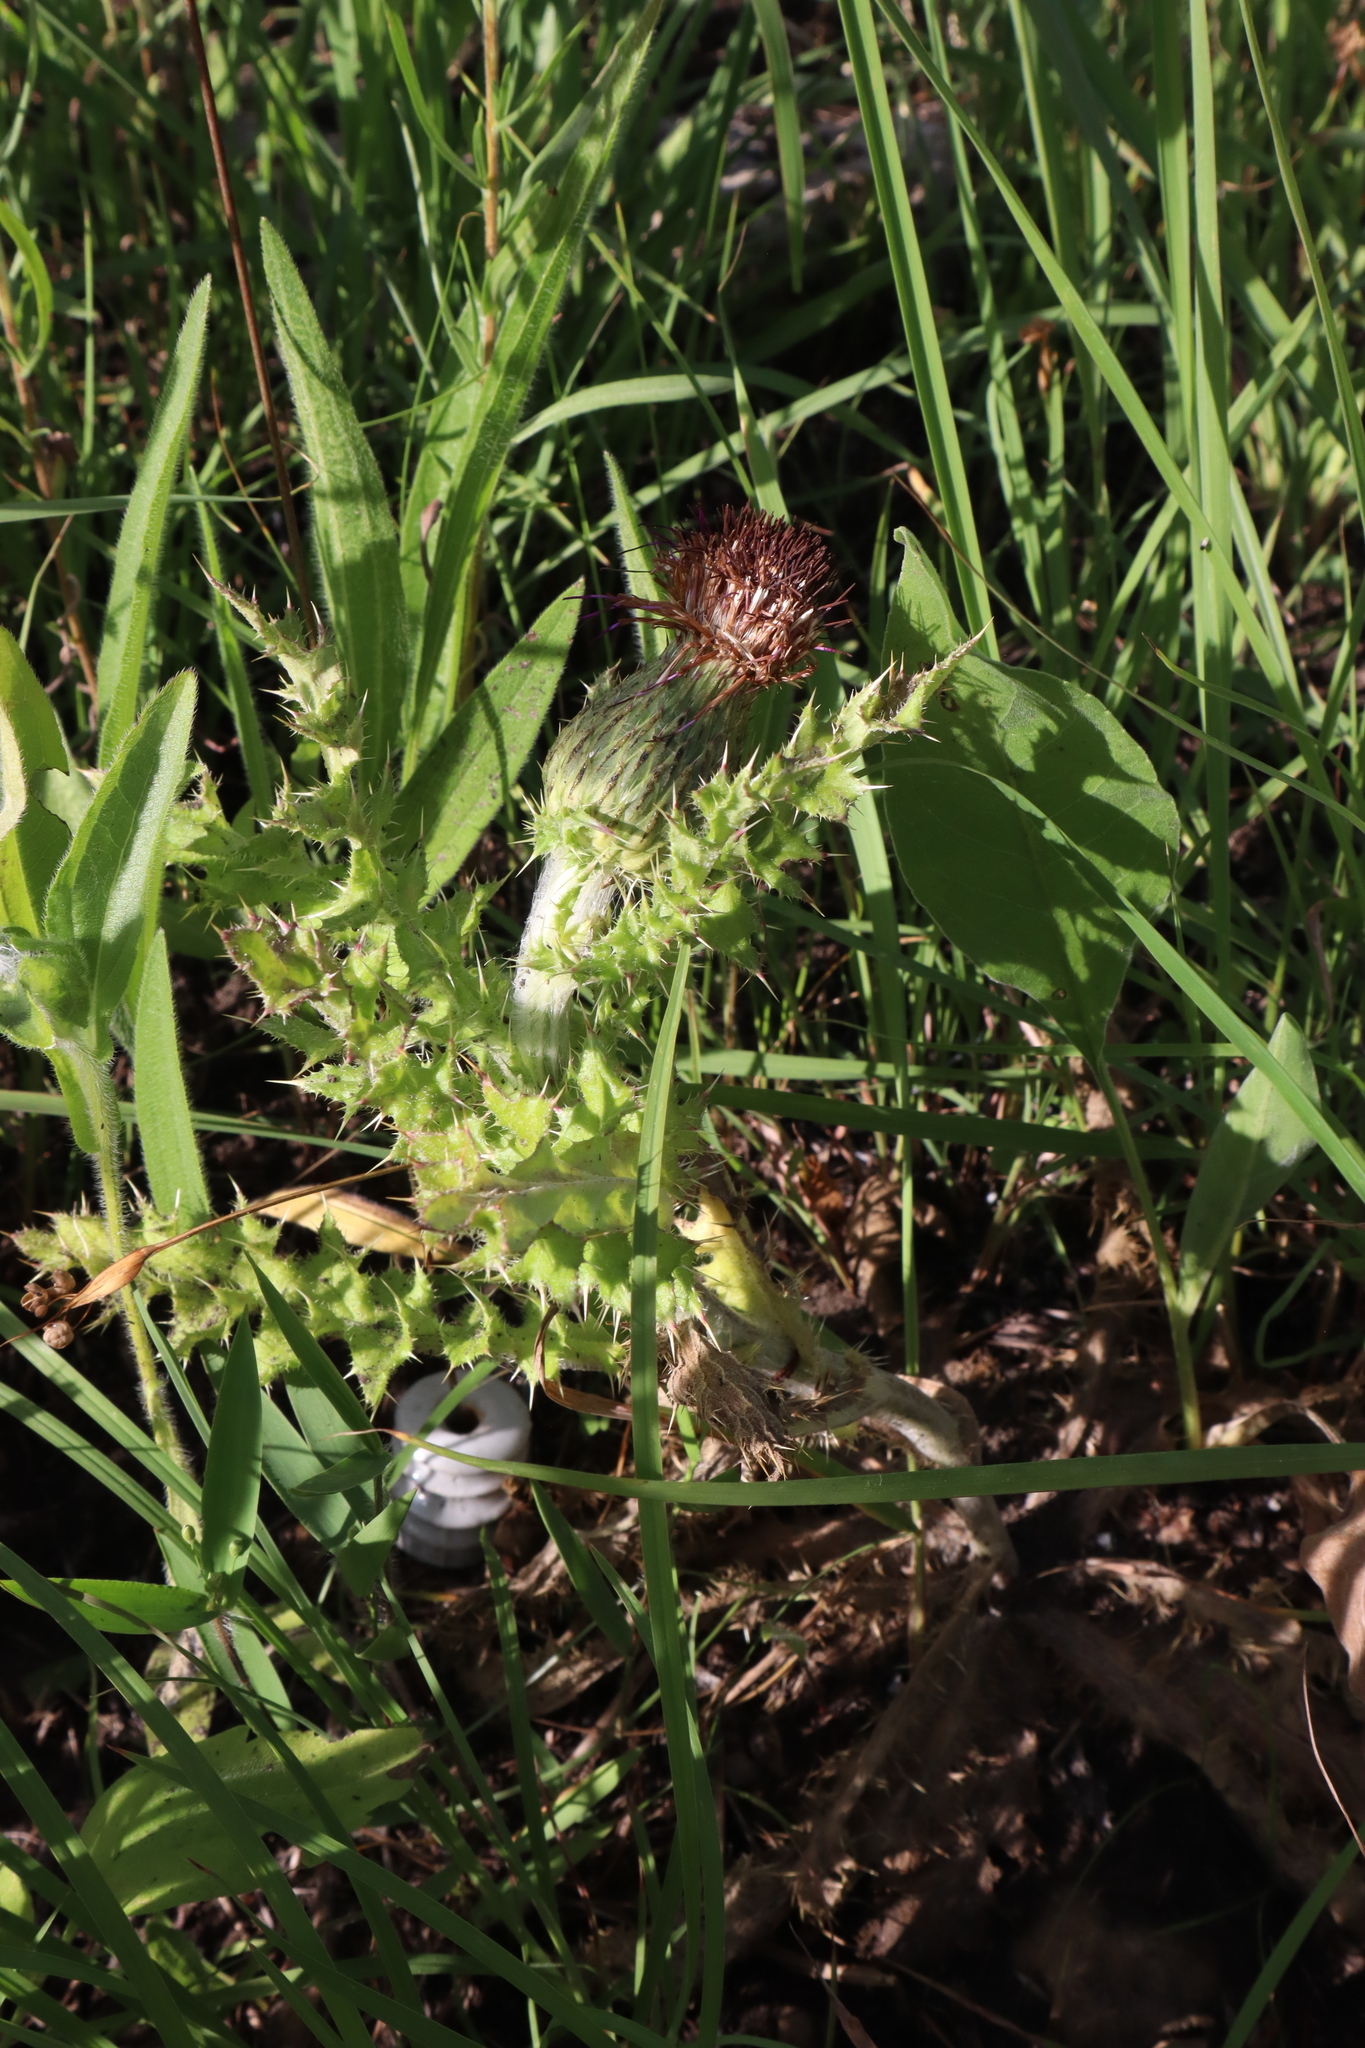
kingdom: Plantae
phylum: Tracheophyta
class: Magnoliopsida
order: Asterales
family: Asteraceae
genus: Cirsium
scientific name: Cirsium pumilum
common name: Pasture thistle
